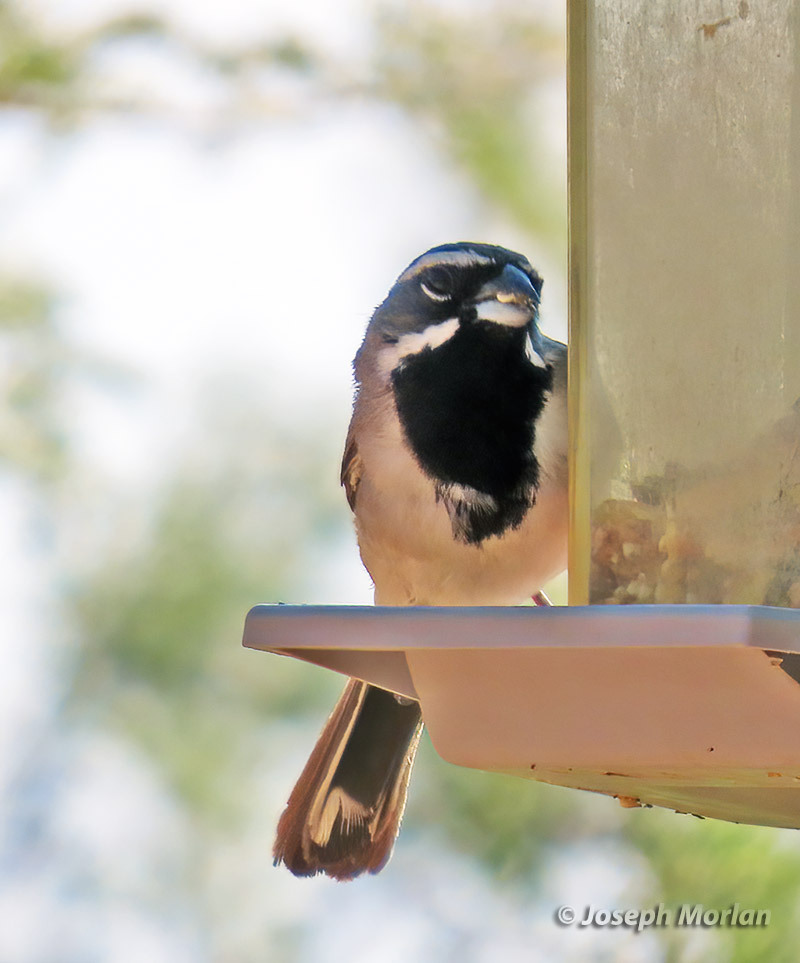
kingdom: Animalia
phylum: Chordata
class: Aves
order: Passeriformes
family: Passerellidae
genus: Amphispiza
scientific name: Amphispiza bilineata
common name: Black-throated sparrow
